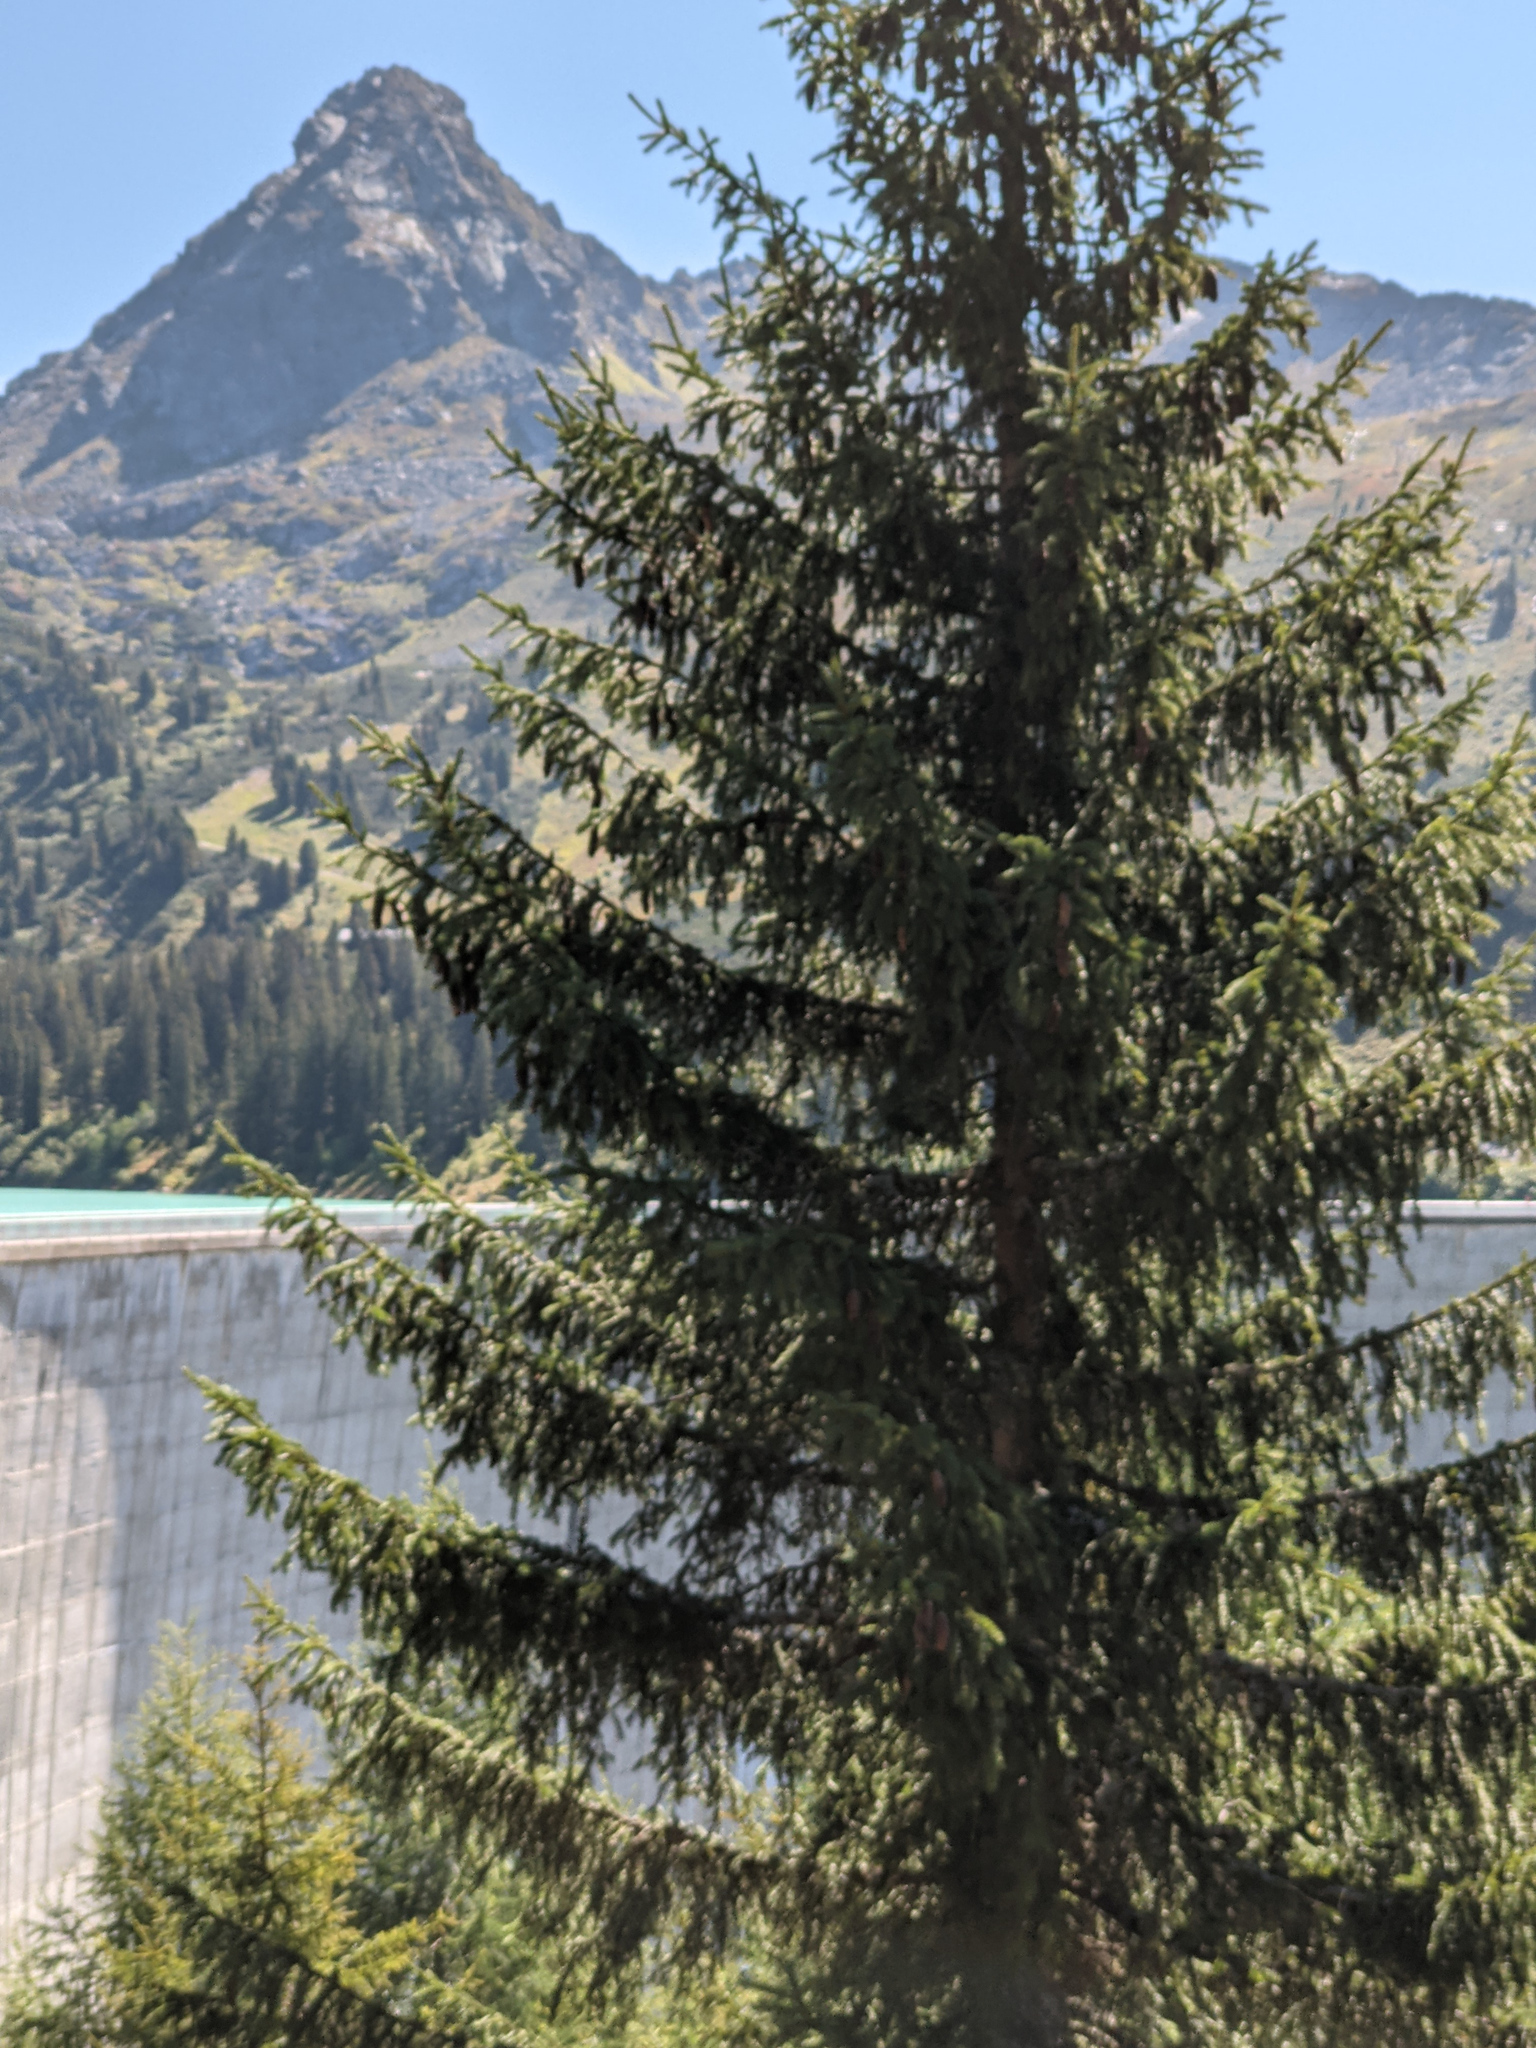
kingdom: Plantae
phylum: Tracheophyta
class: Pinopsida
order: Pinales
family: Pinaceae
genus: Picea
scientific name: Picea abies
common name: Norway spruce
